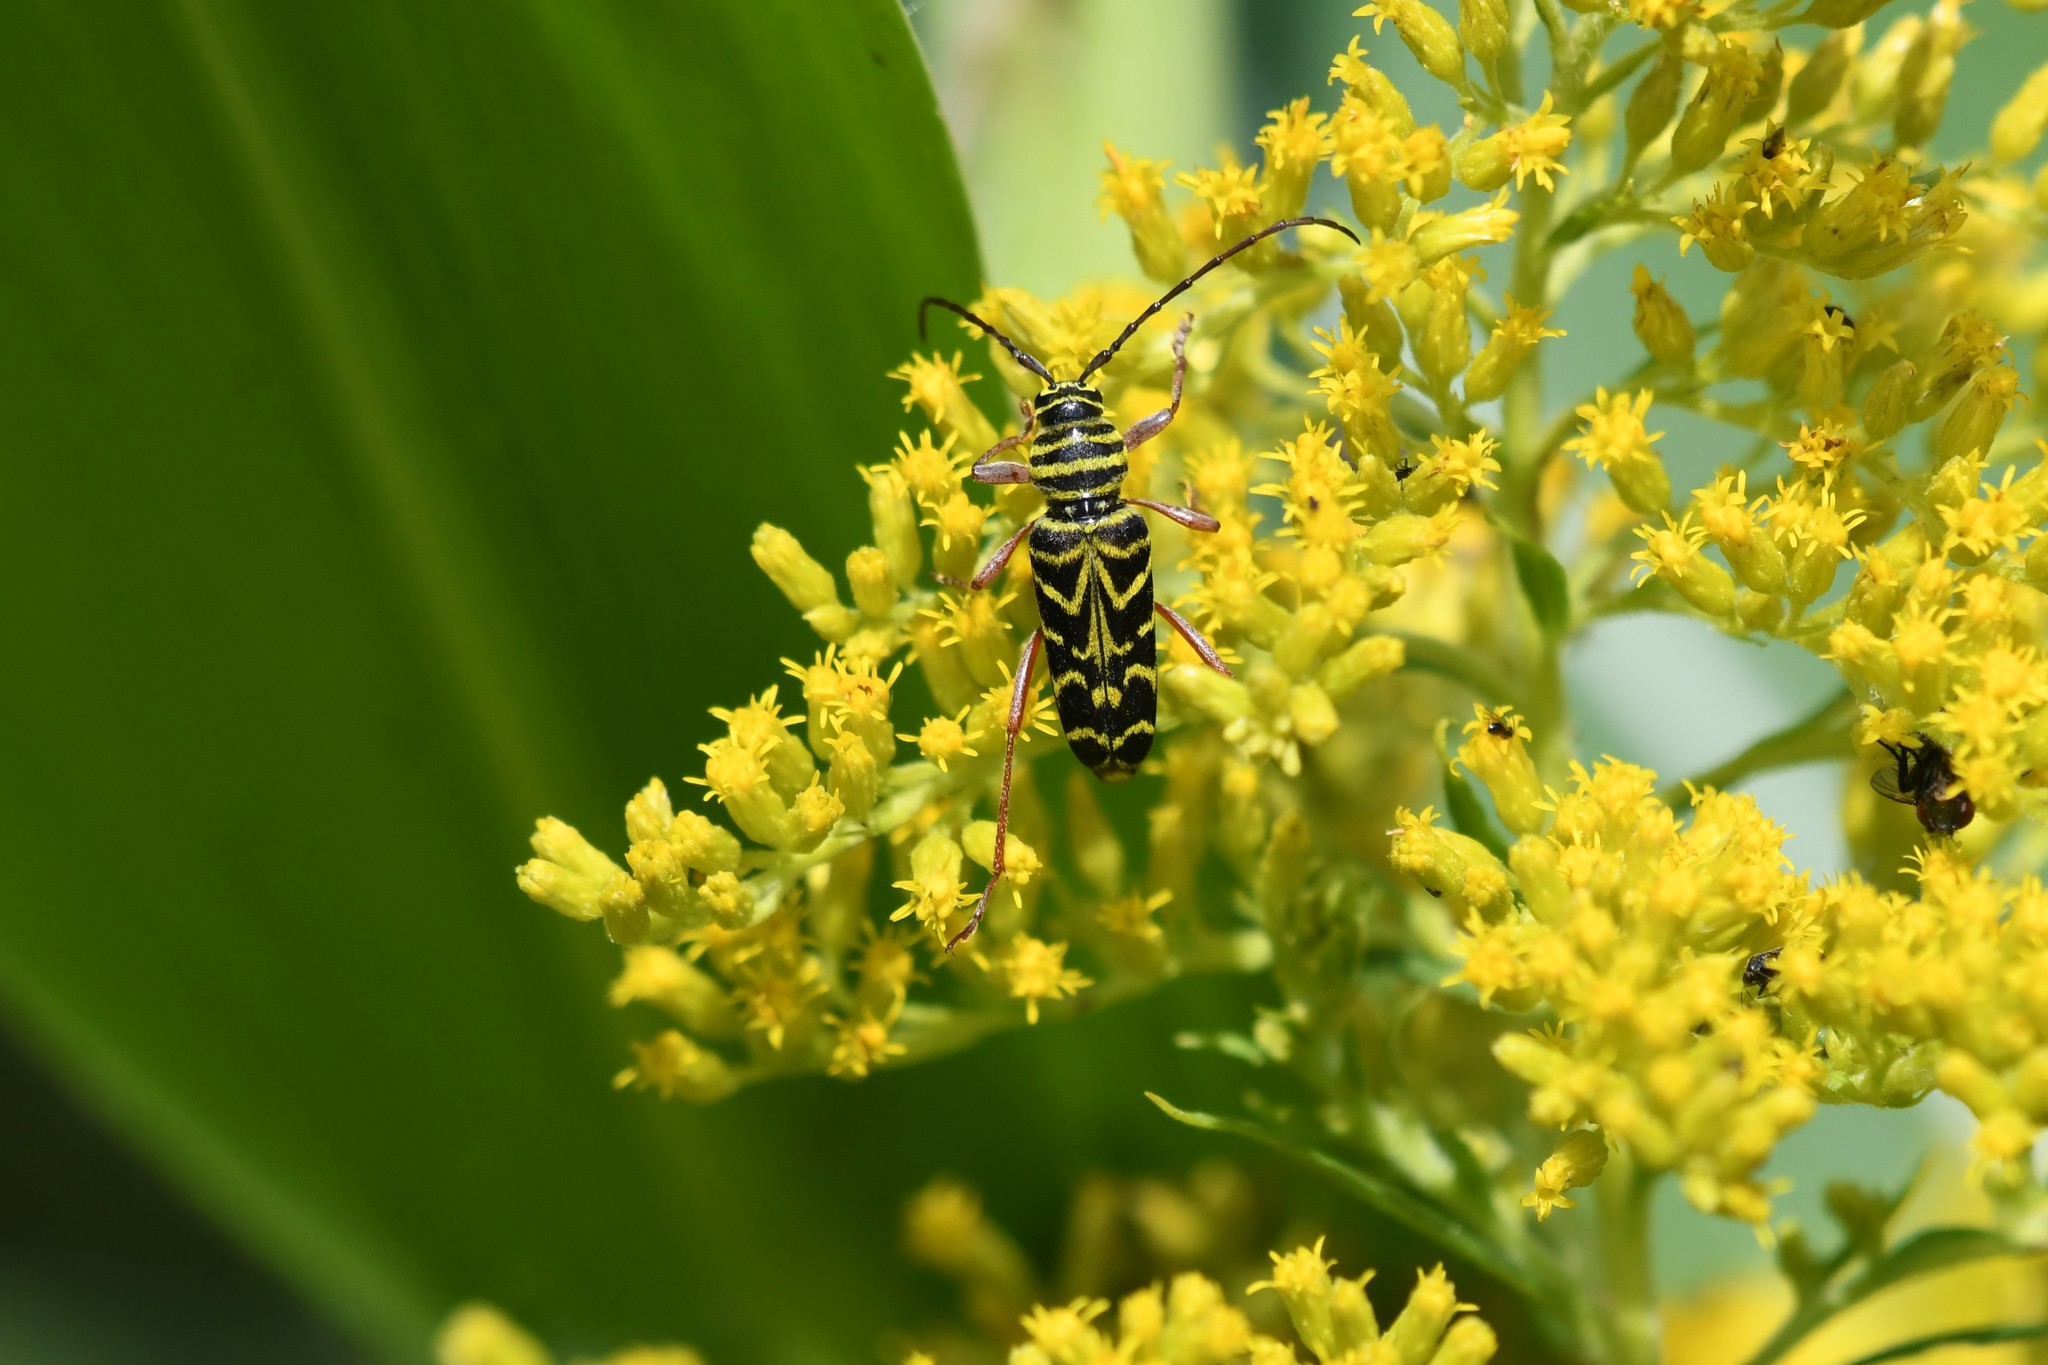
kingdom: Animalia
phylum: Arthropoda
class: Insecta
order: Coleoptera
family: Cerambycidae
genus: Megacyllene
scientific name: Megacyllene robiniae
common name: Locust borer
